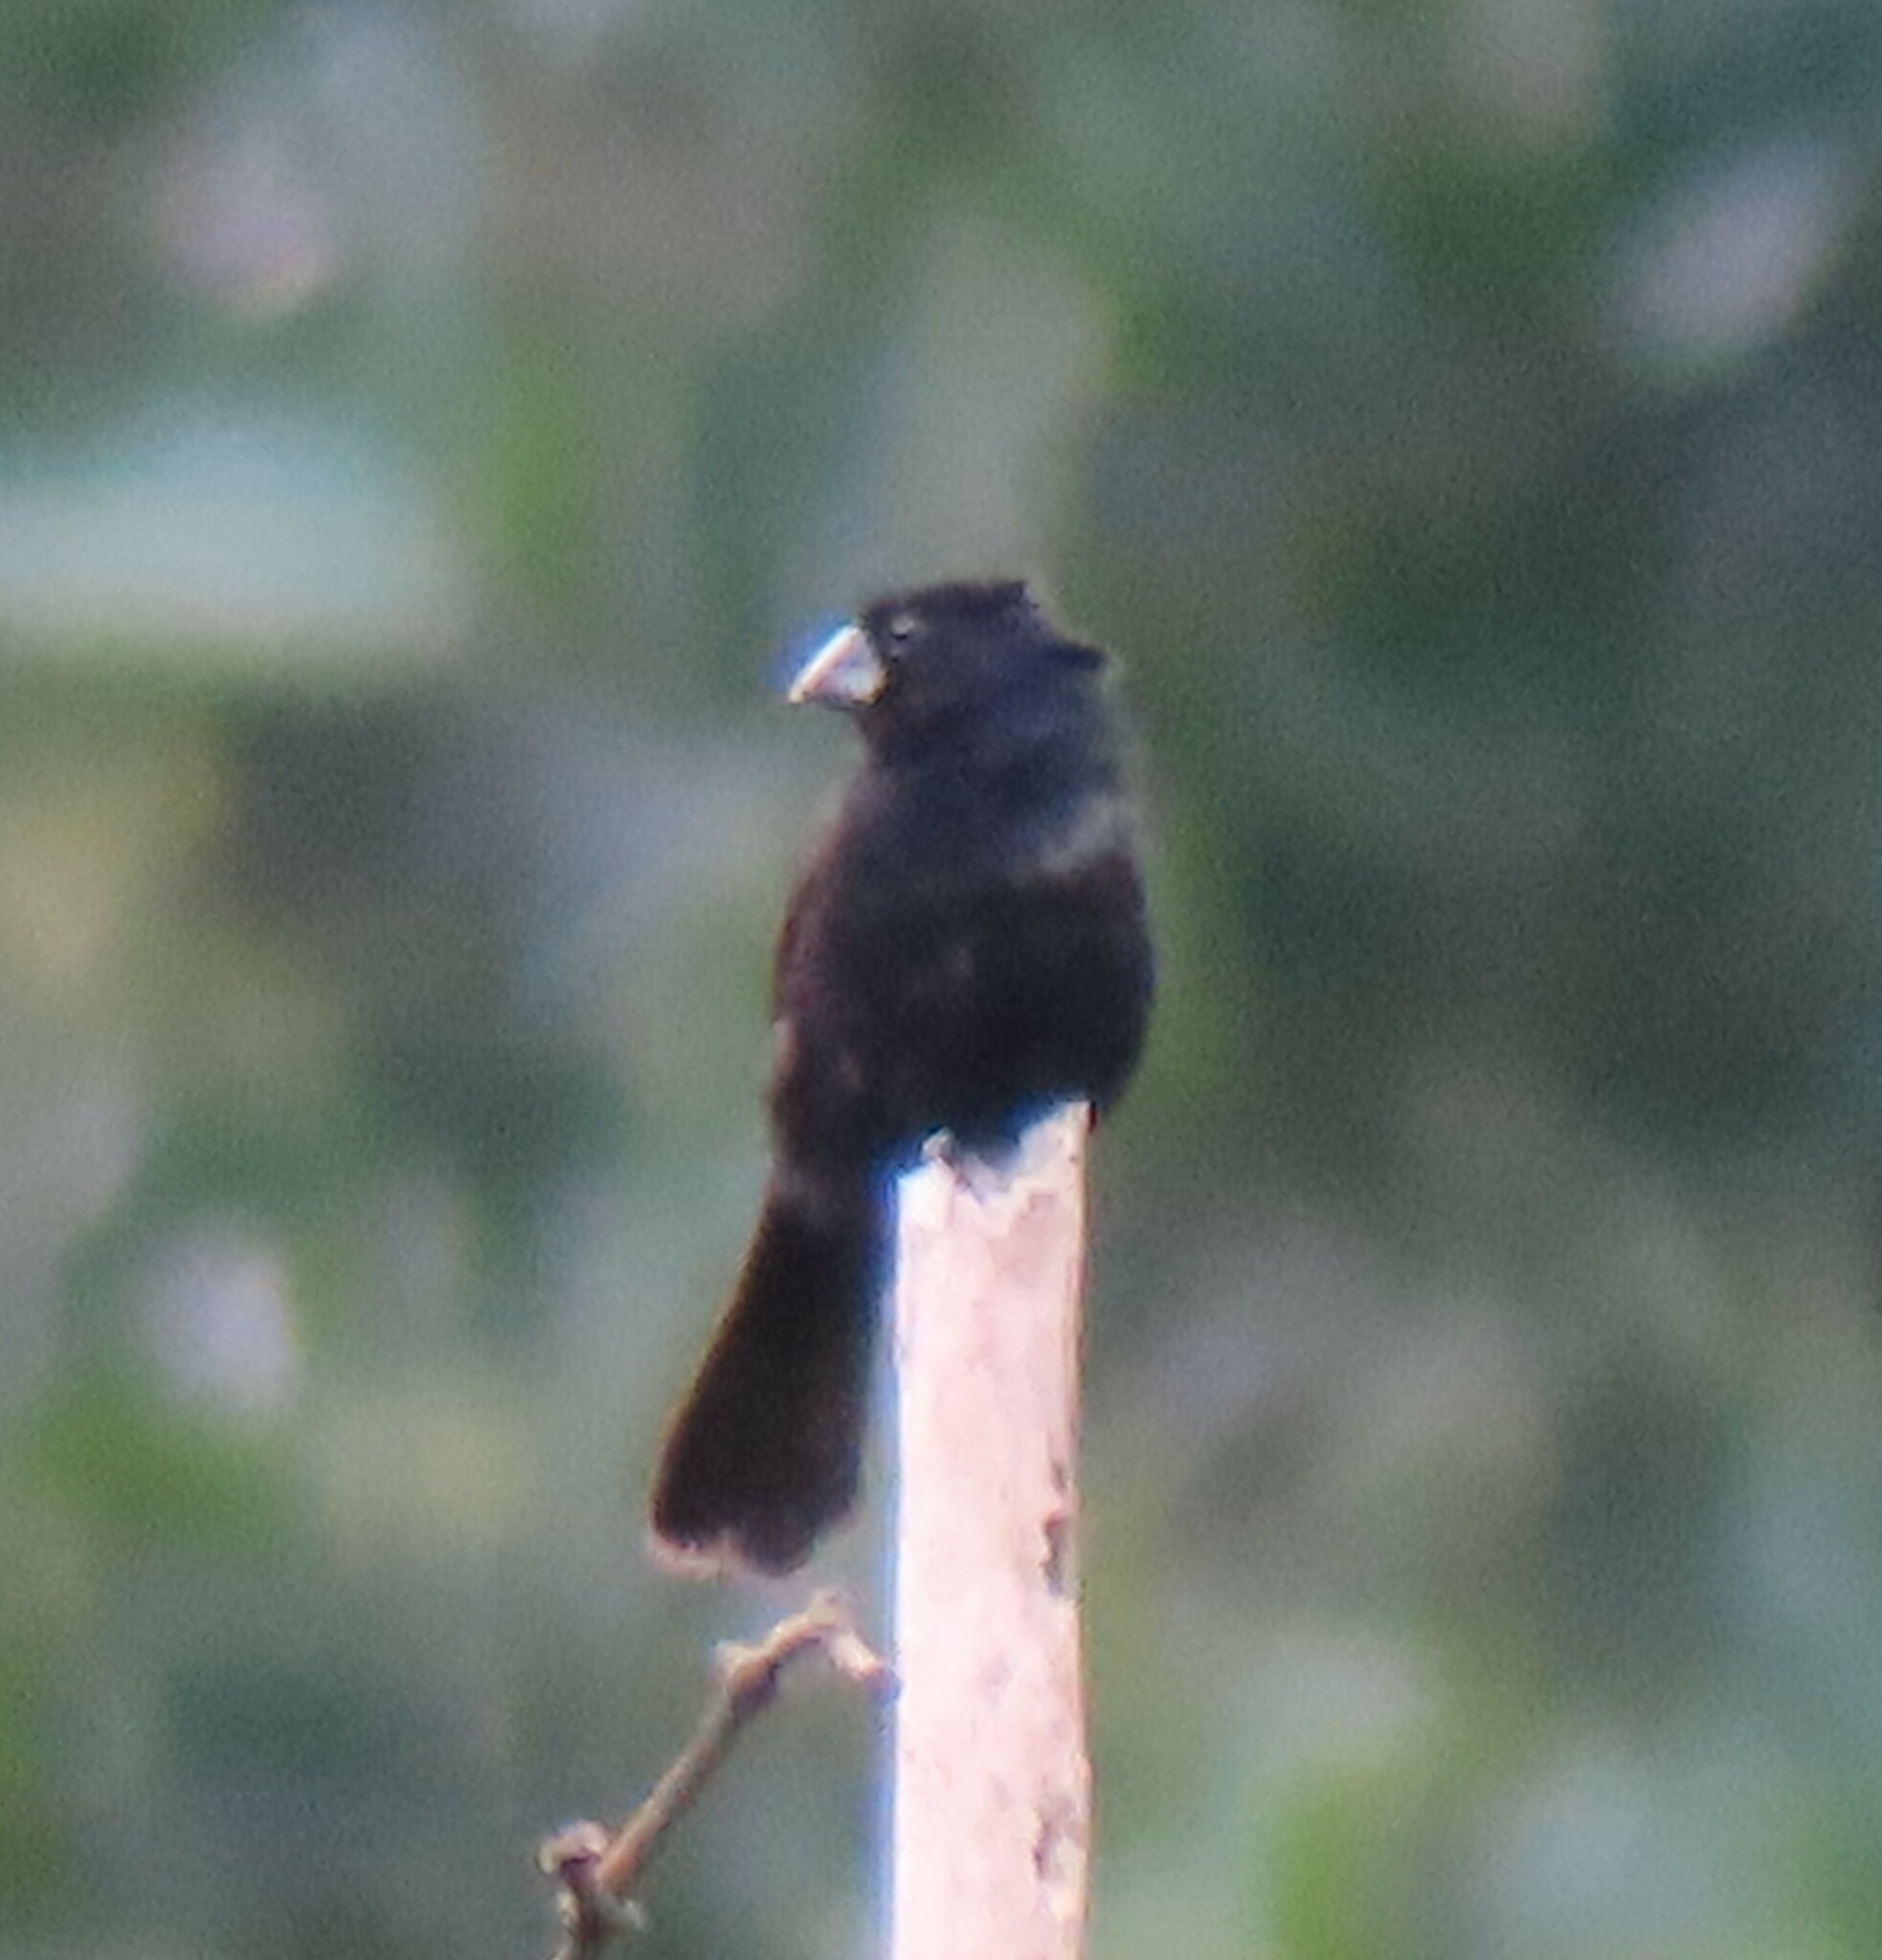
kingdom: Animalia
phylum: Chordata
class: Aves
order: Passeriformes
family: Thraupidae
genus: Sporophila
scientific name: Sporophila funerea
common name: Thick-billed seed-finch
